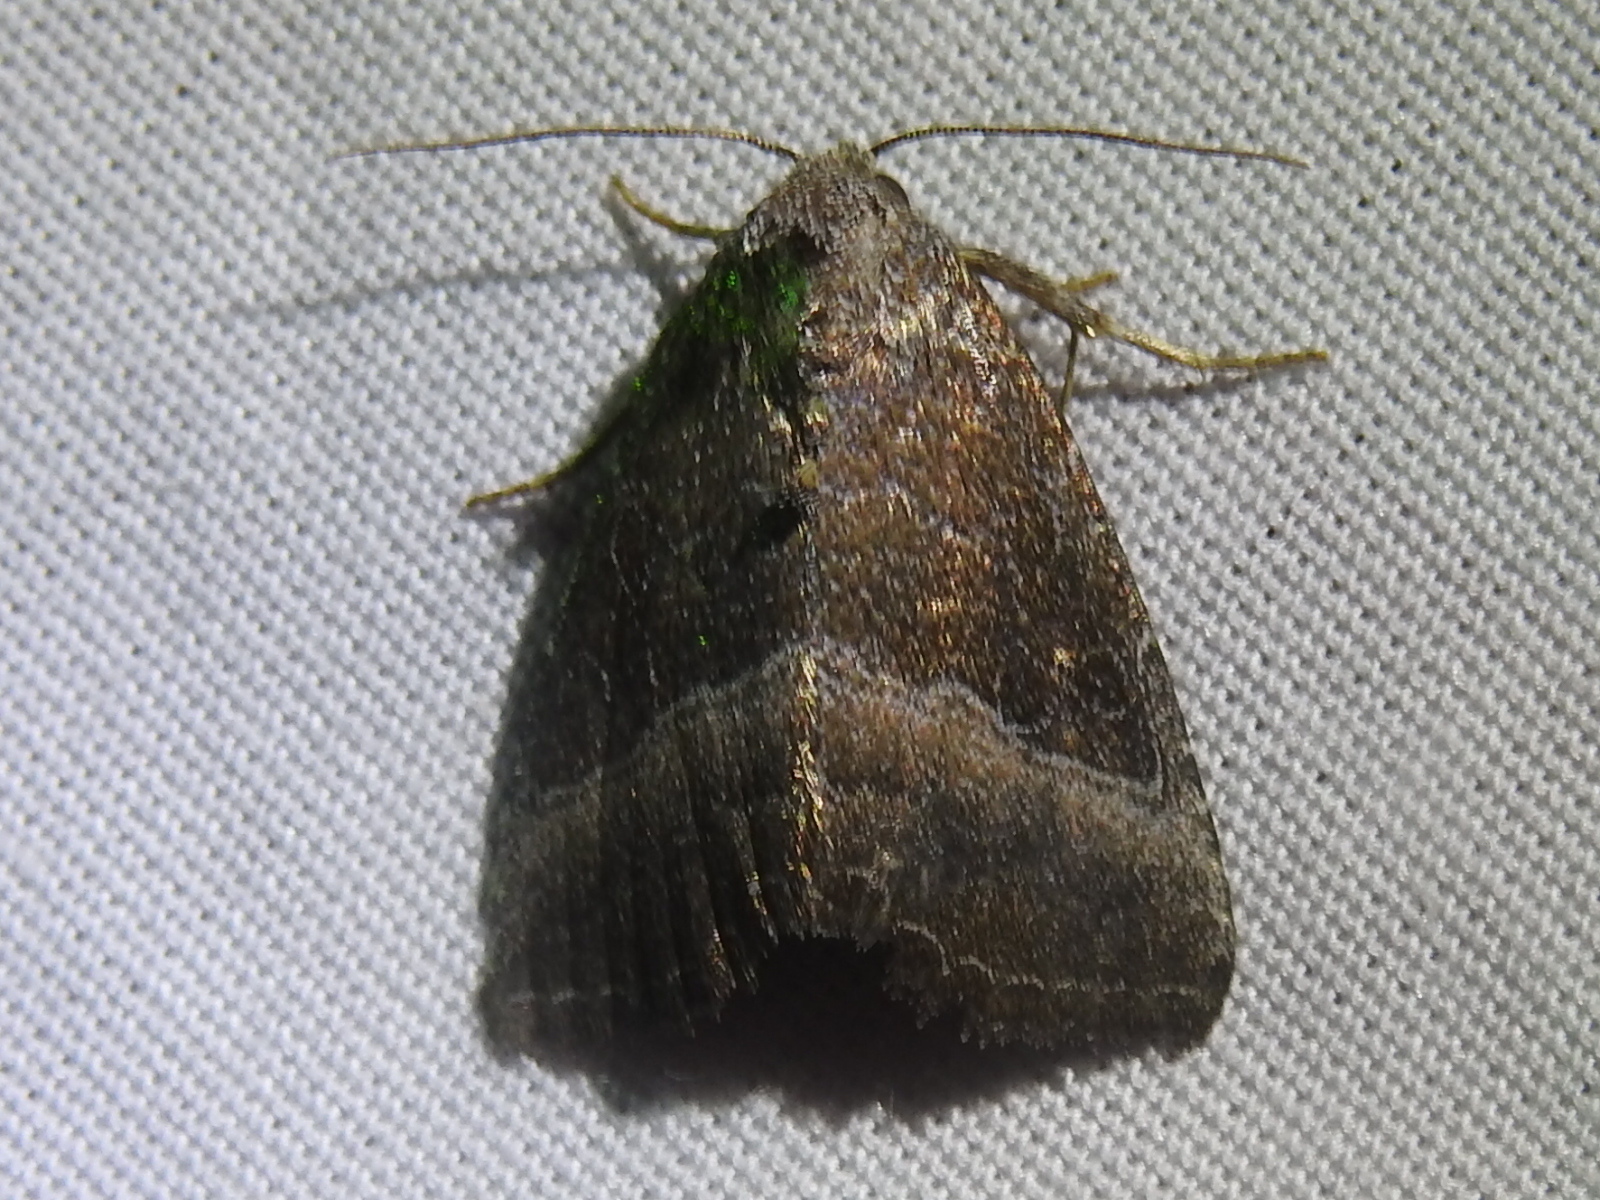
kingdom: Animalia
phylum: Arthropoda
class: Insecta
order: Lepidoptera
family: Noctuidae
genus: Ogdoconta
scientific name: Ogdoconta cinereola
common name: Common pinkband
